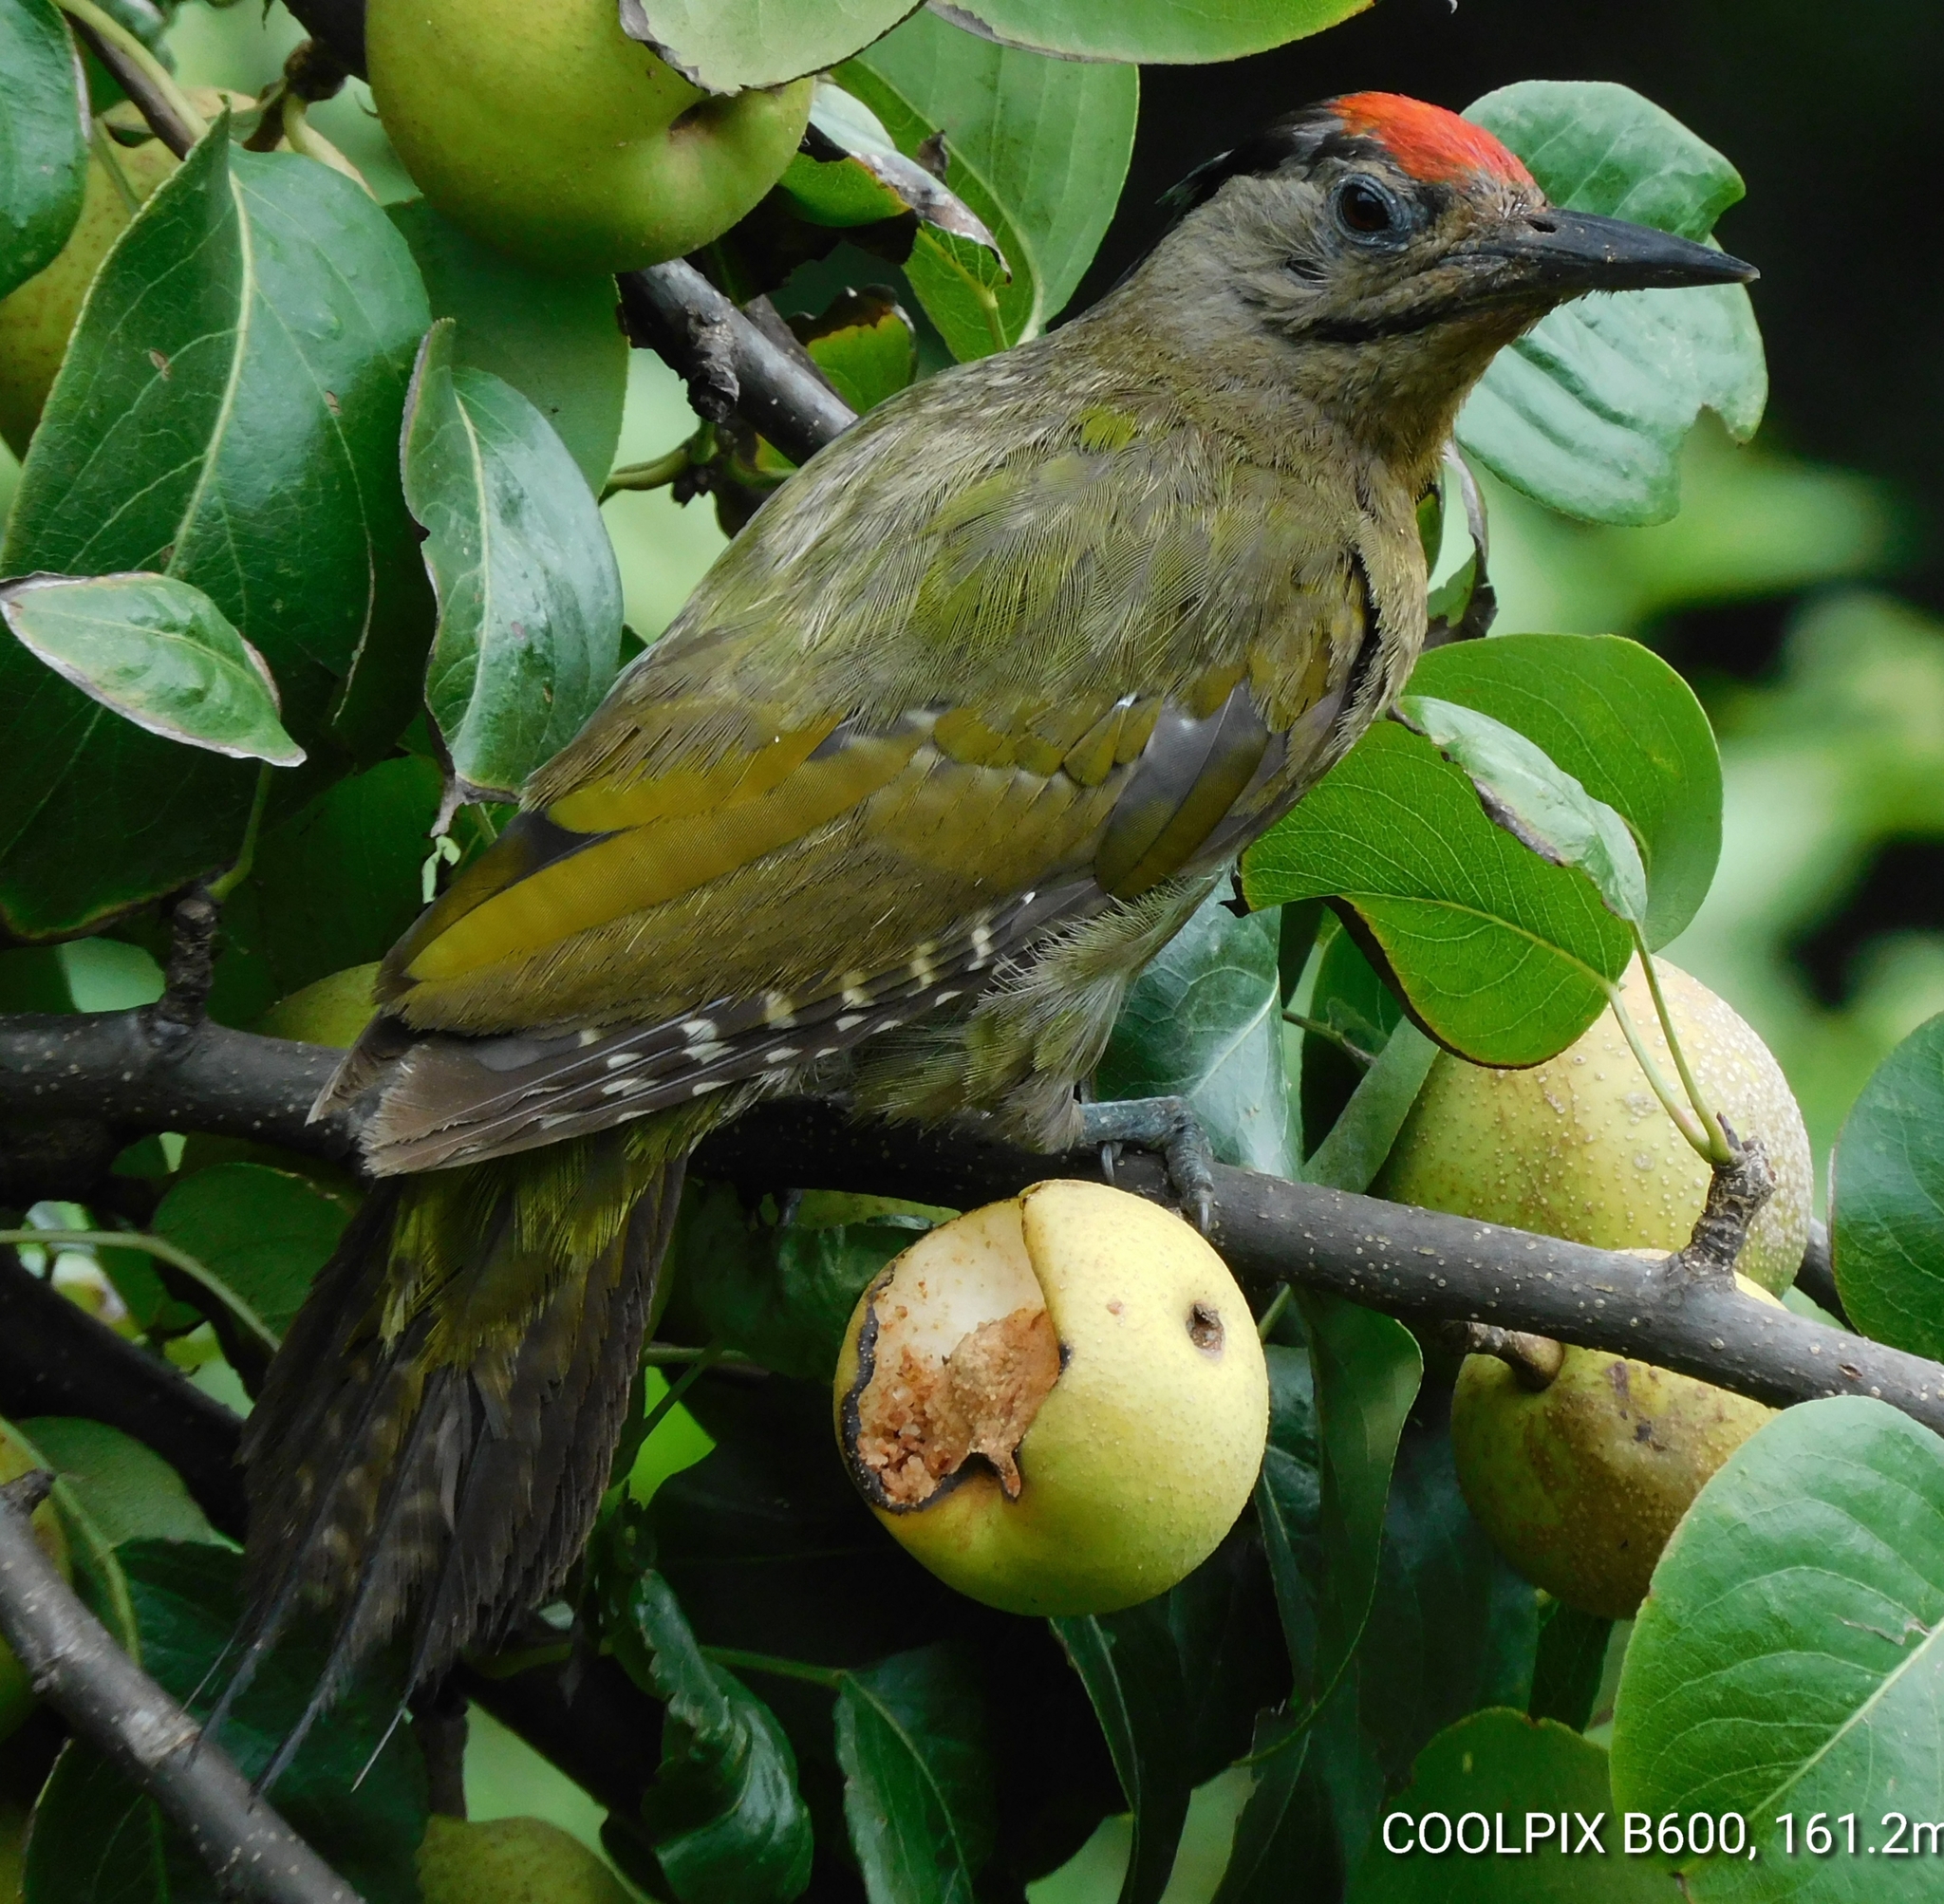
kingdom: Animalia
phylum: Chordata
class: Aves
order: Piciformes
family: Picidae
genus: Picus
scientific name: Picus canus
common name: Grey-headed woodpecker
